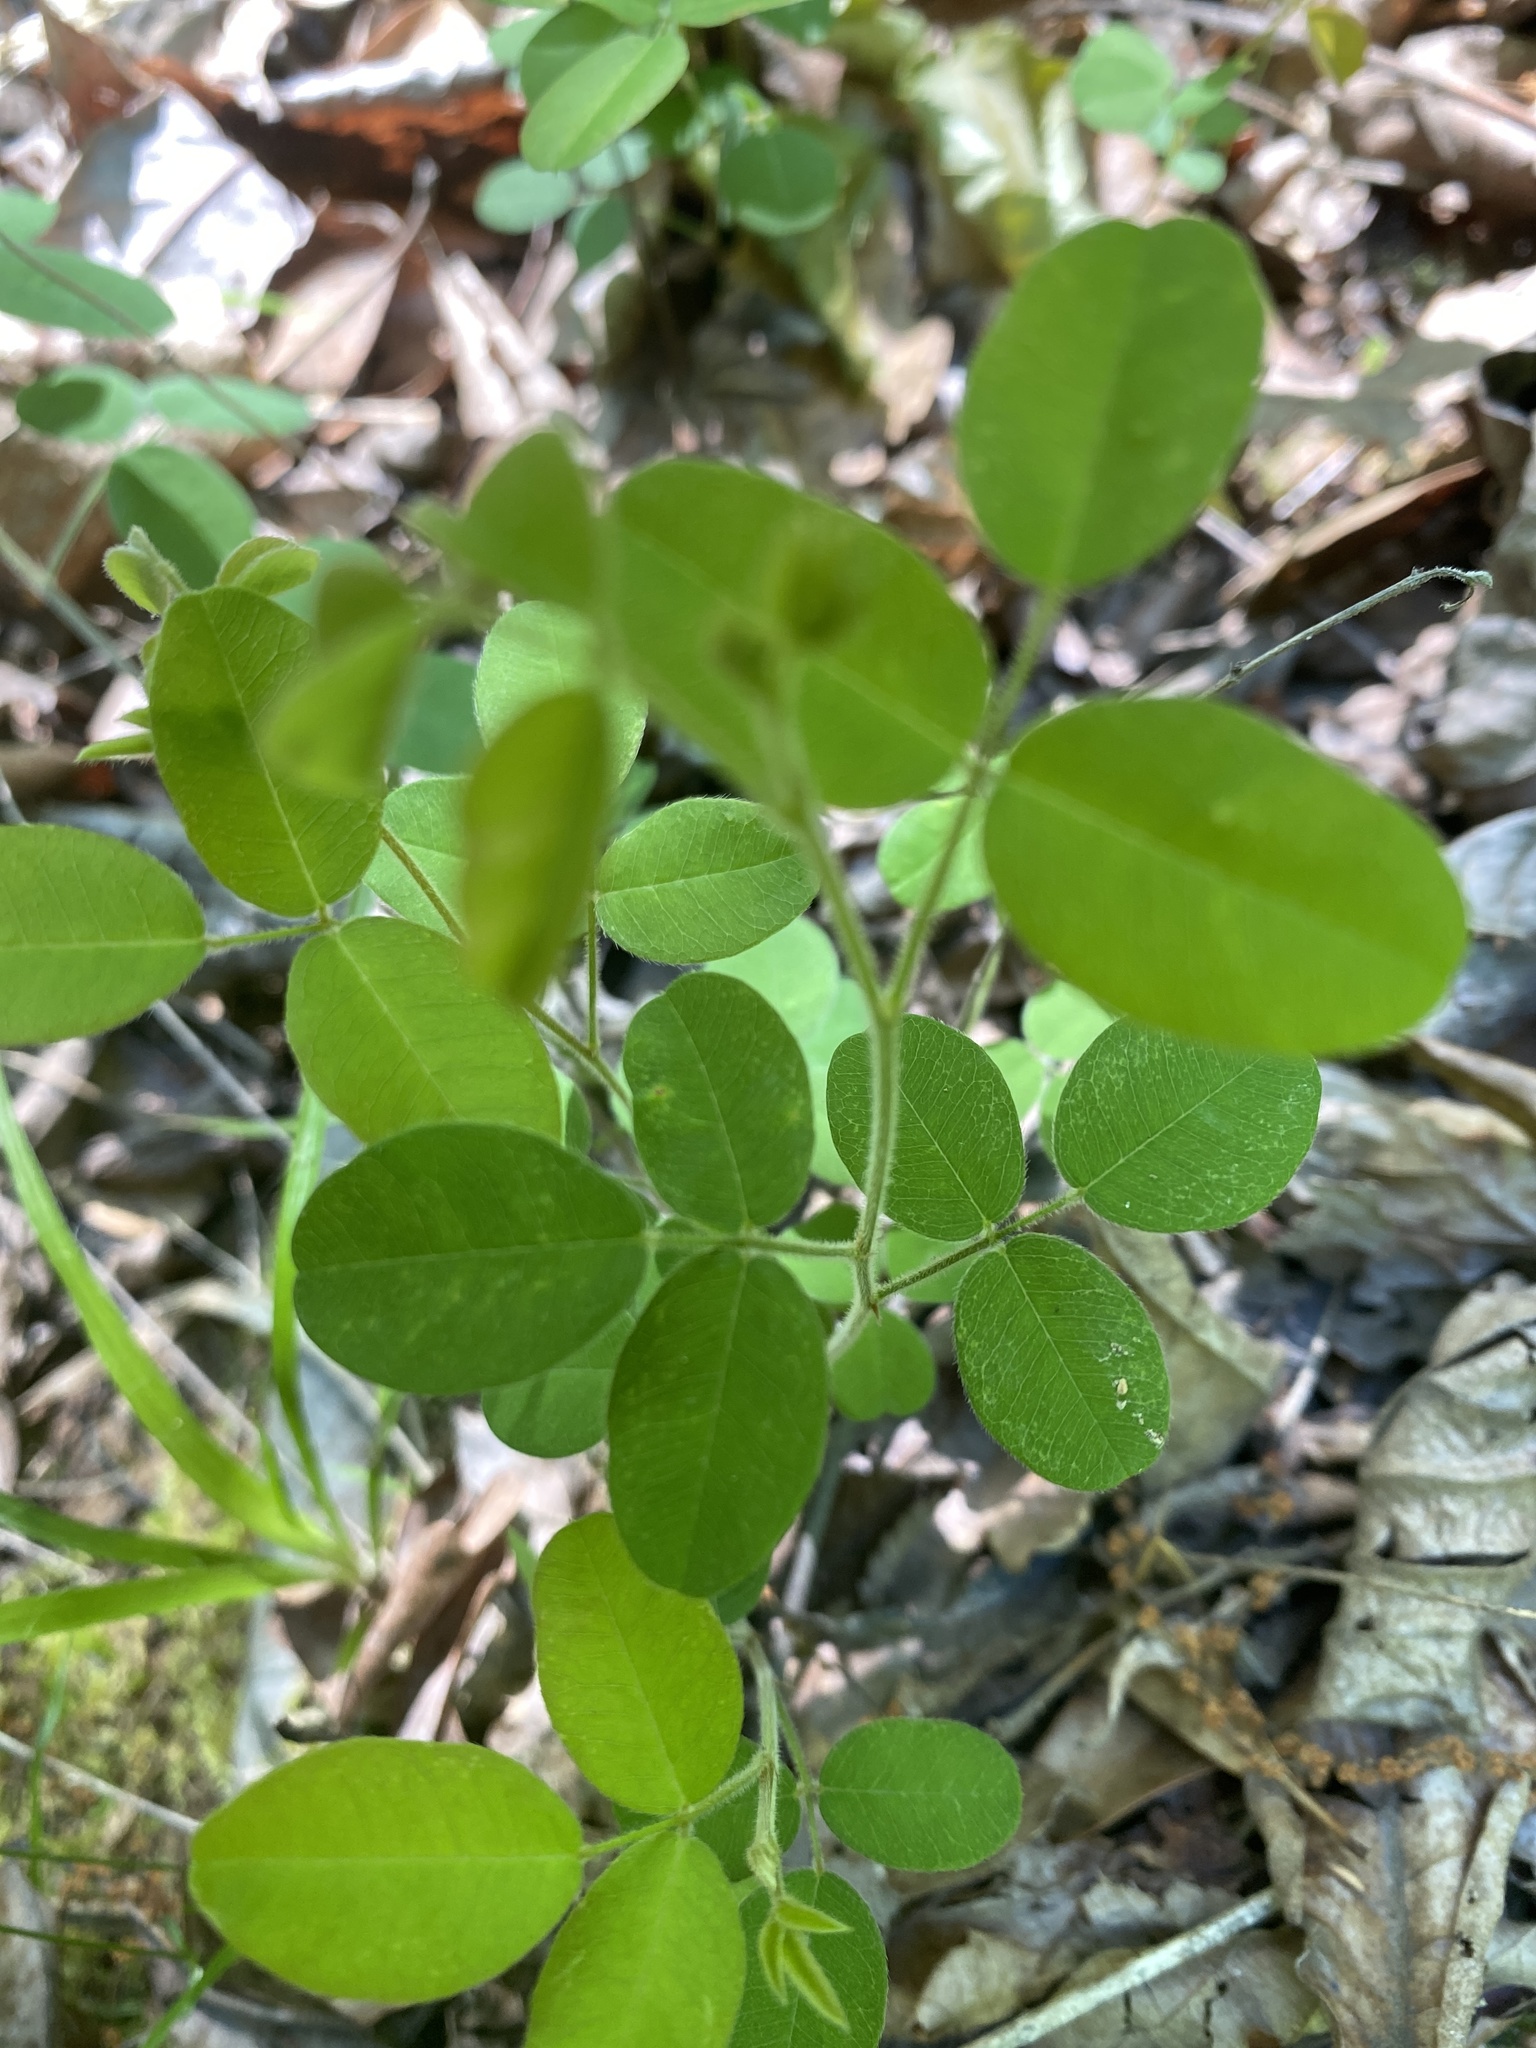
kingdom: Plantae
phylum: Tracheophyta
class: Magnoliopsida
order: Fabales
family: Fabaceae
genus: Lespedeza
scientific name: Lespedeza hirta
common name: Hairy lespedeza
